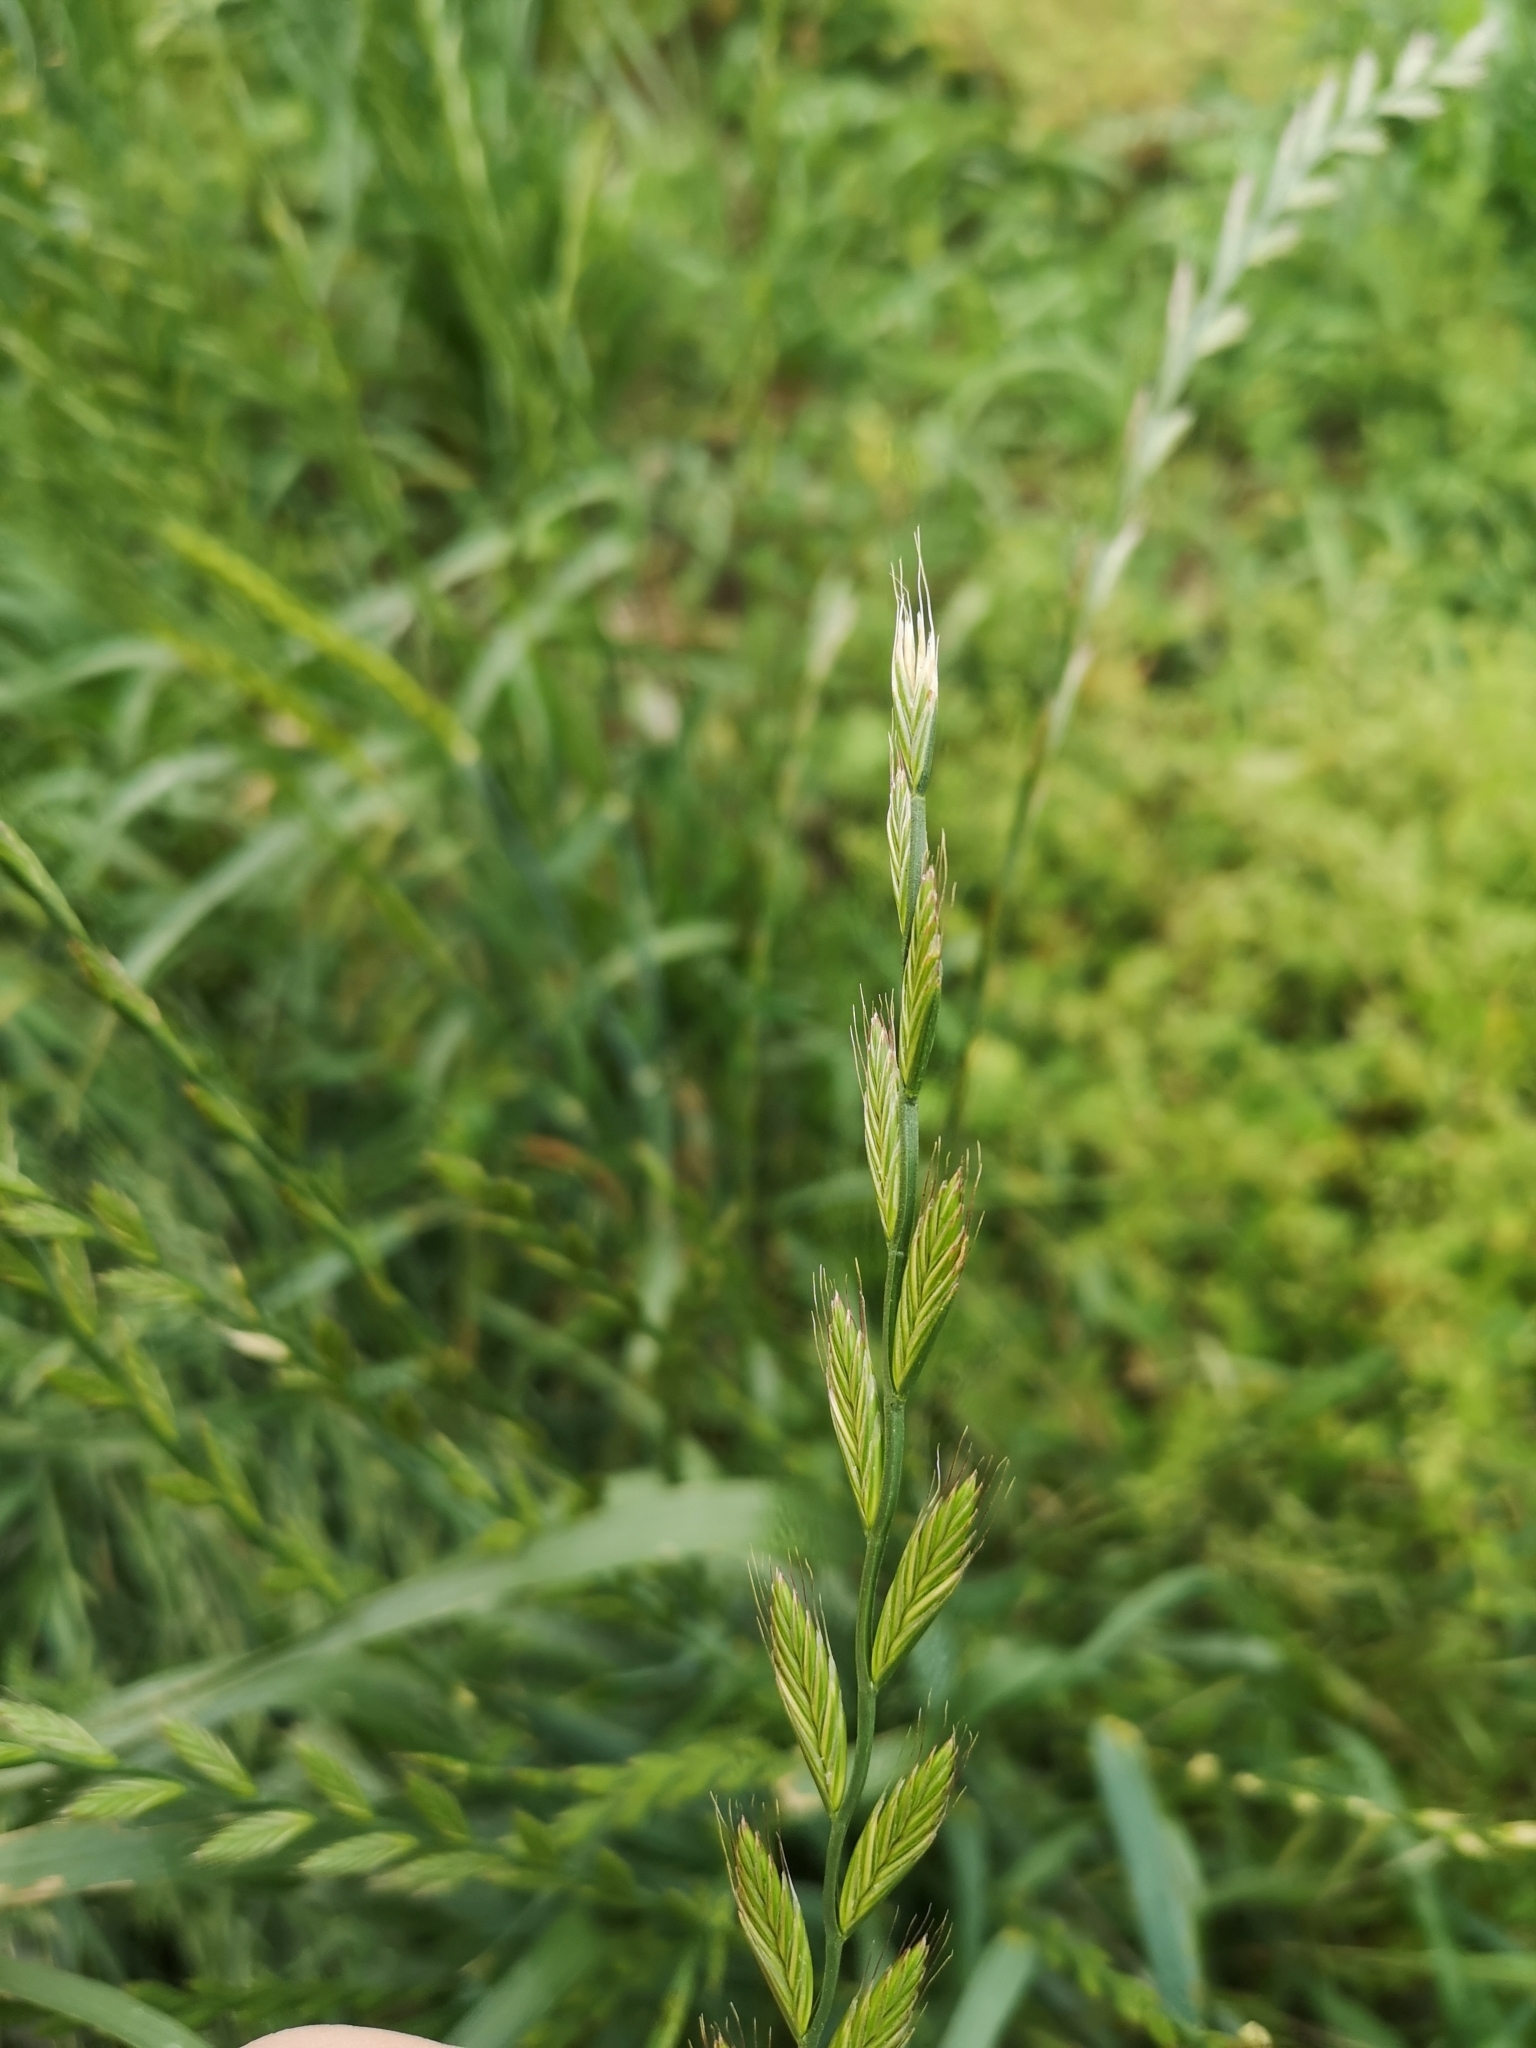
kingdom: Plantae
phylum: Tracheophyta
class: Liliopsida
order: Poales
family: Poaceae
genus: Lolium
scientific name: Lolium multiflorum
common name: Annual ryegrass
